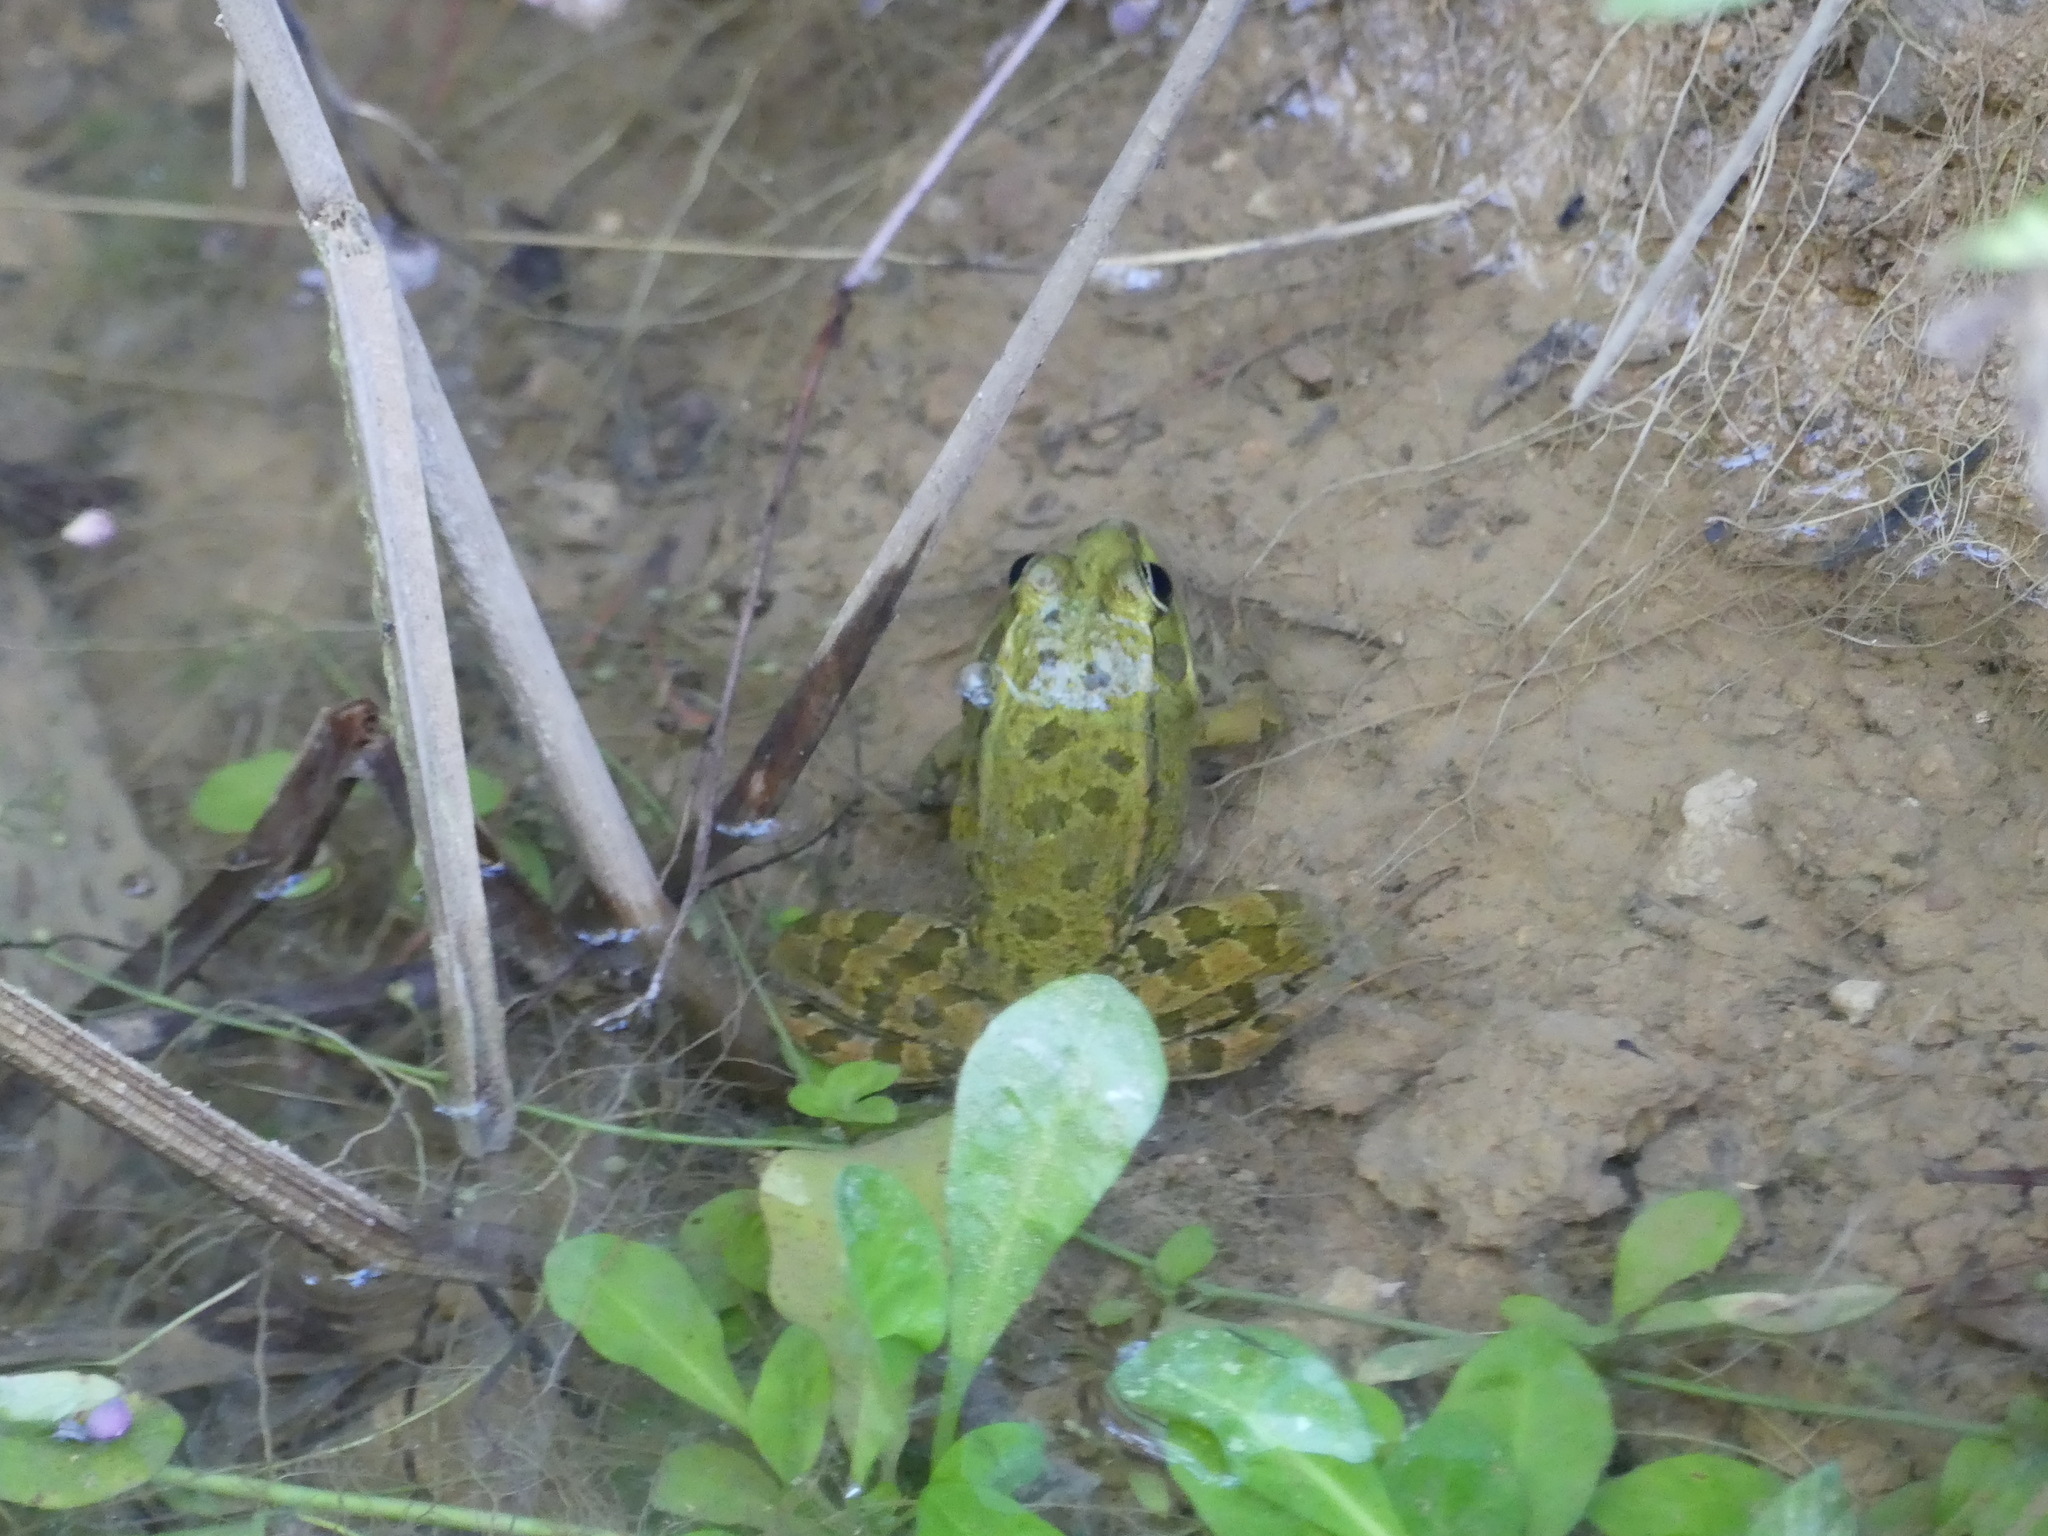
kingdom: Animalia
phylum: Chordata
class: Amphibia
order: Anura
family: Ranidae
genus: Pelophylax
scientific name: Pelophylax ridibundus
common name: Marsh frog
